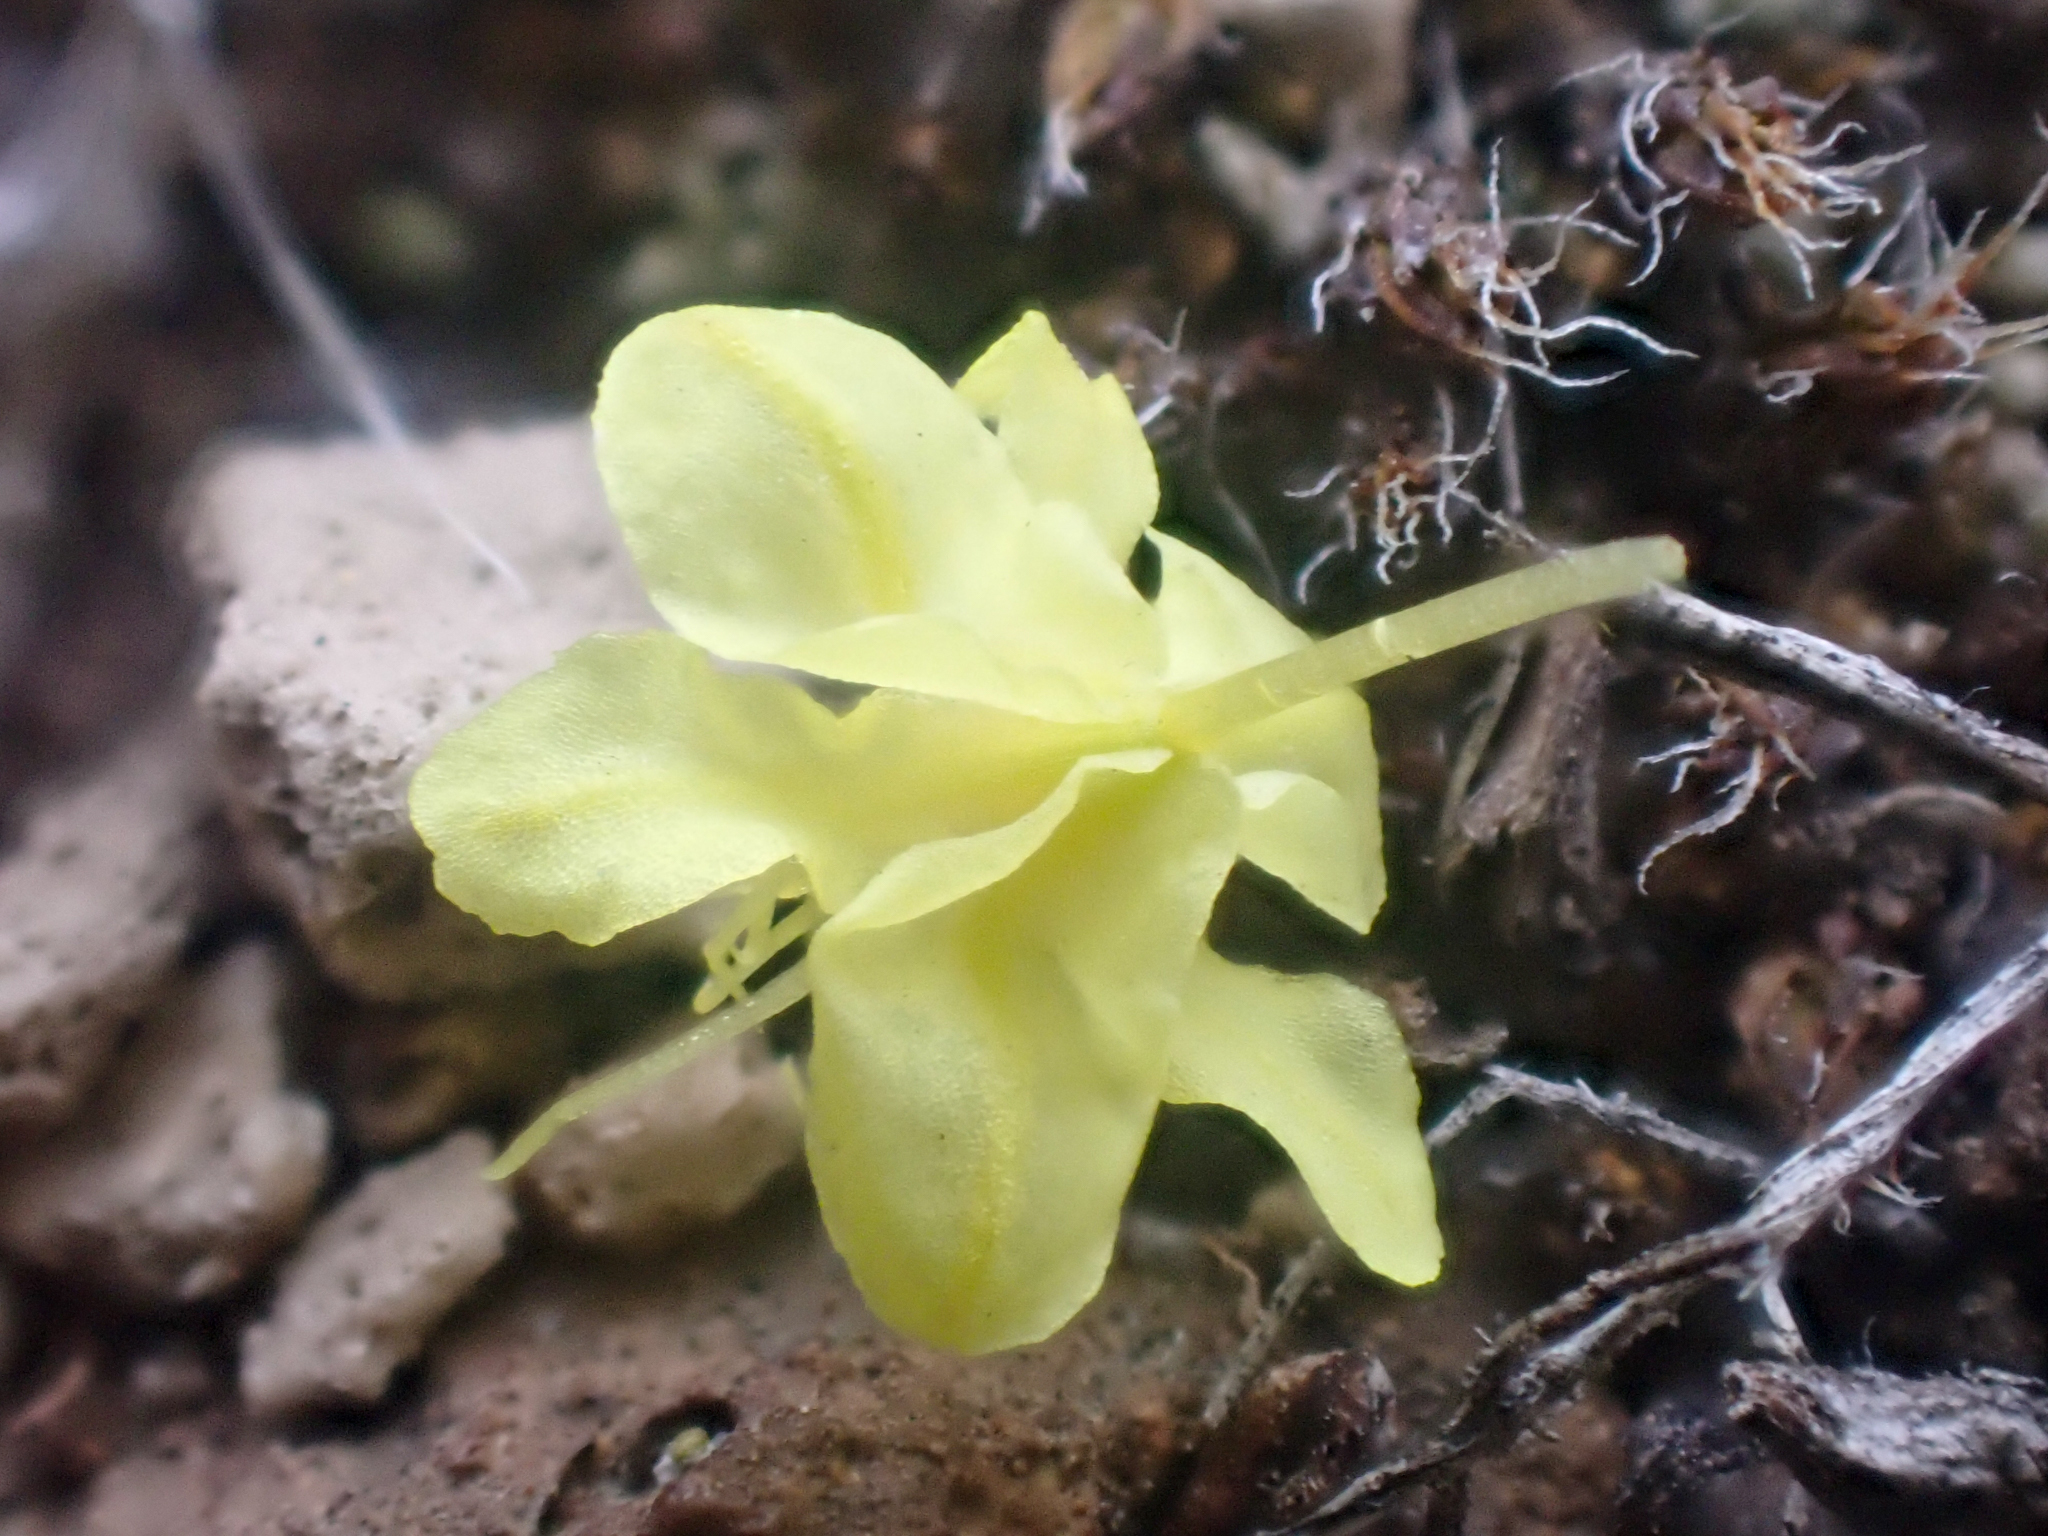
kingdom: Plantae
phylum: Tracheophyta
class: Magnoliopsida
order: Caryophyllales
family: Polygonaceae
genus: Eriogonum
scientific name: Eriogonum strictum
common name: Blue mountain buckwheat
